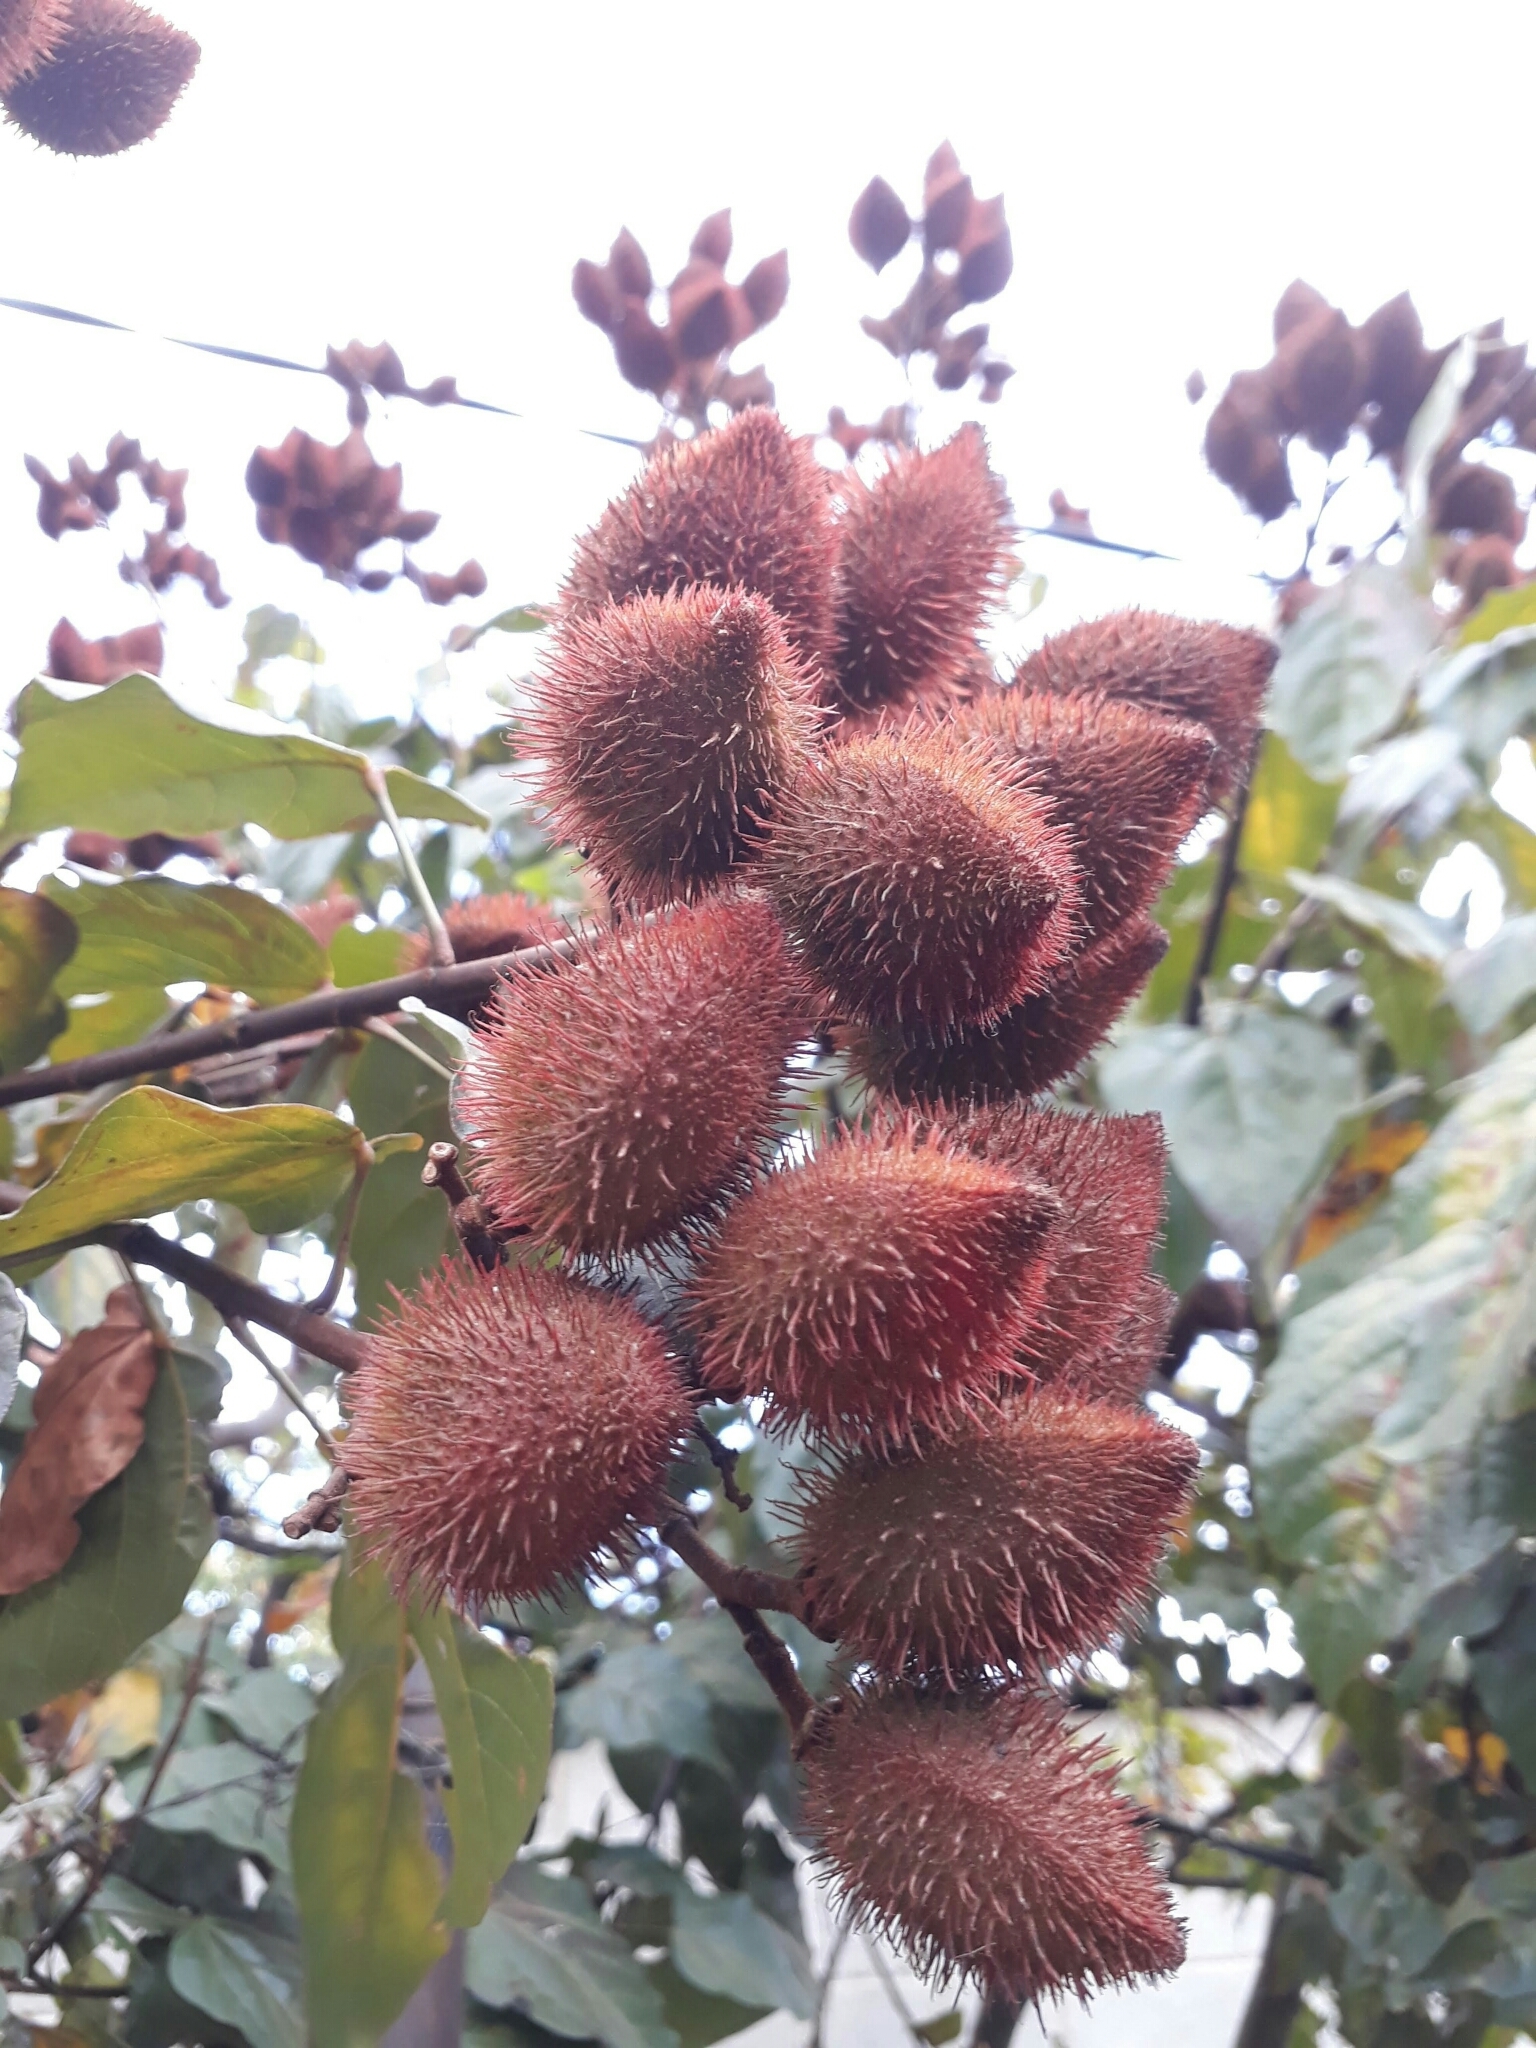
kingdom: Plantae
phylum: Tracheophyta
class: Magnoliopsida
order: Malvales
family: Bixaceae
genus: Bixa
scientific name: Bixa orellana
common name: Lipsticktree
